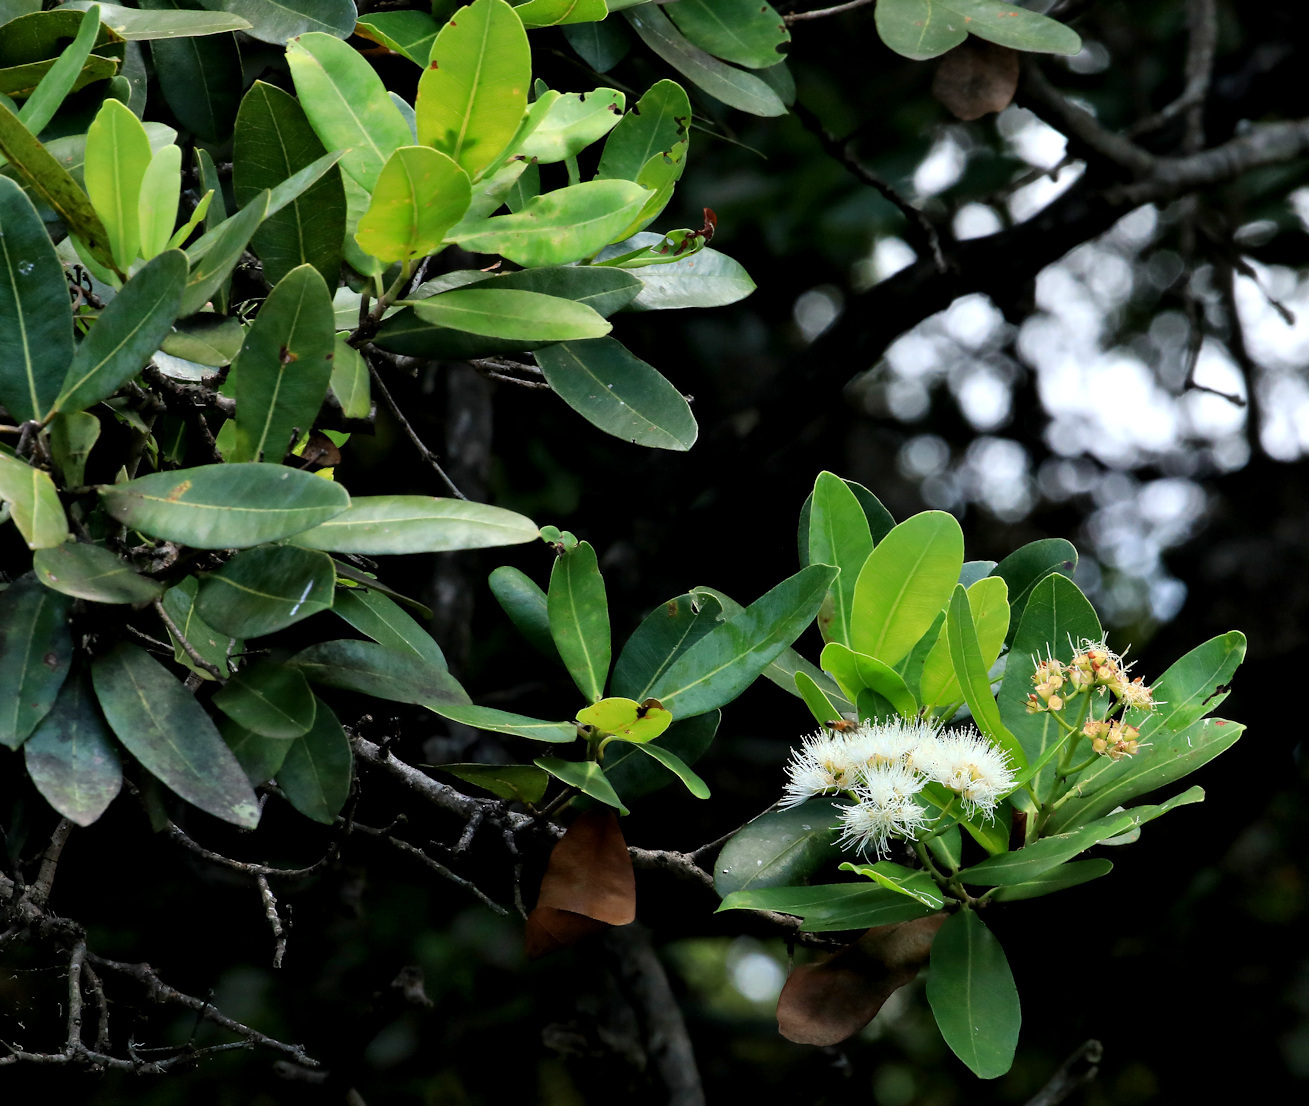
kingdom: Plantae
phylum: Tracheophyta
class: Magnoliopsida
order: Myrtales
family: Myrtaceae
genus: Syzygium
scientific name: Syzygium guineense
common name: Water-pear
